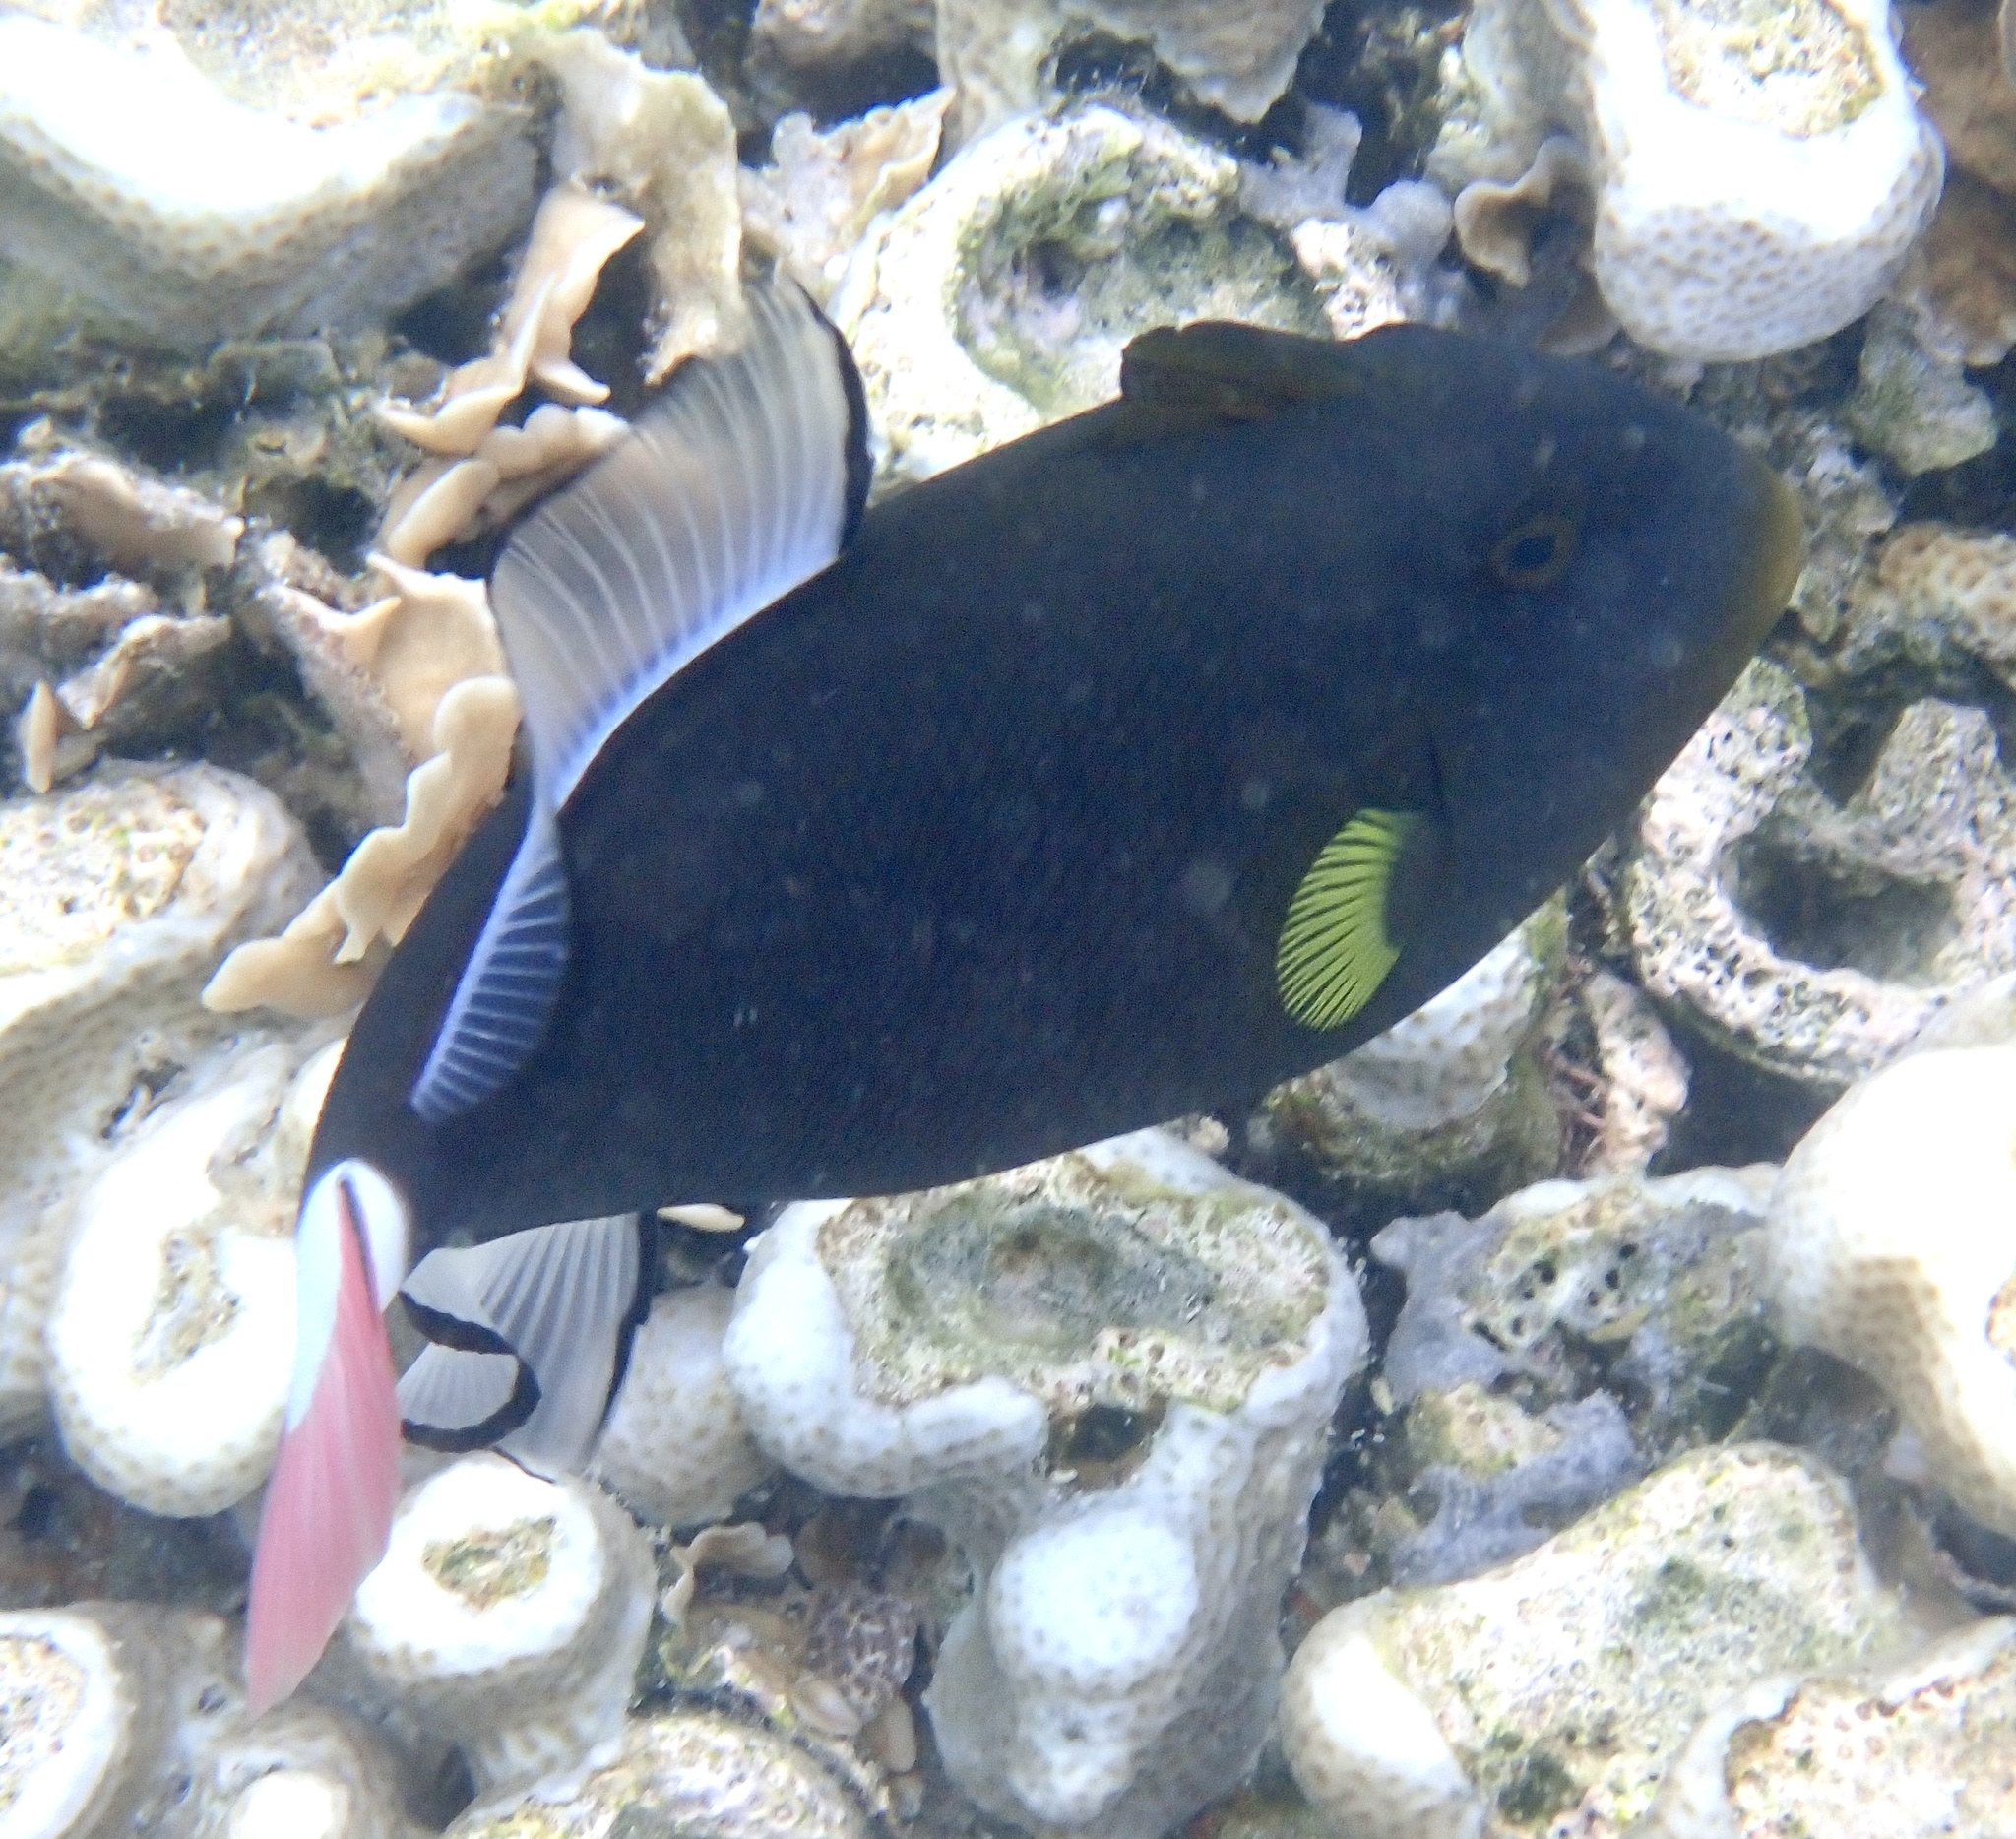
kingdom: Animalia
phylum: Chordata
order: Tetraodontiformes
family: Balistidae
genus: Melichthys
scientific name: Melichthys vidua
